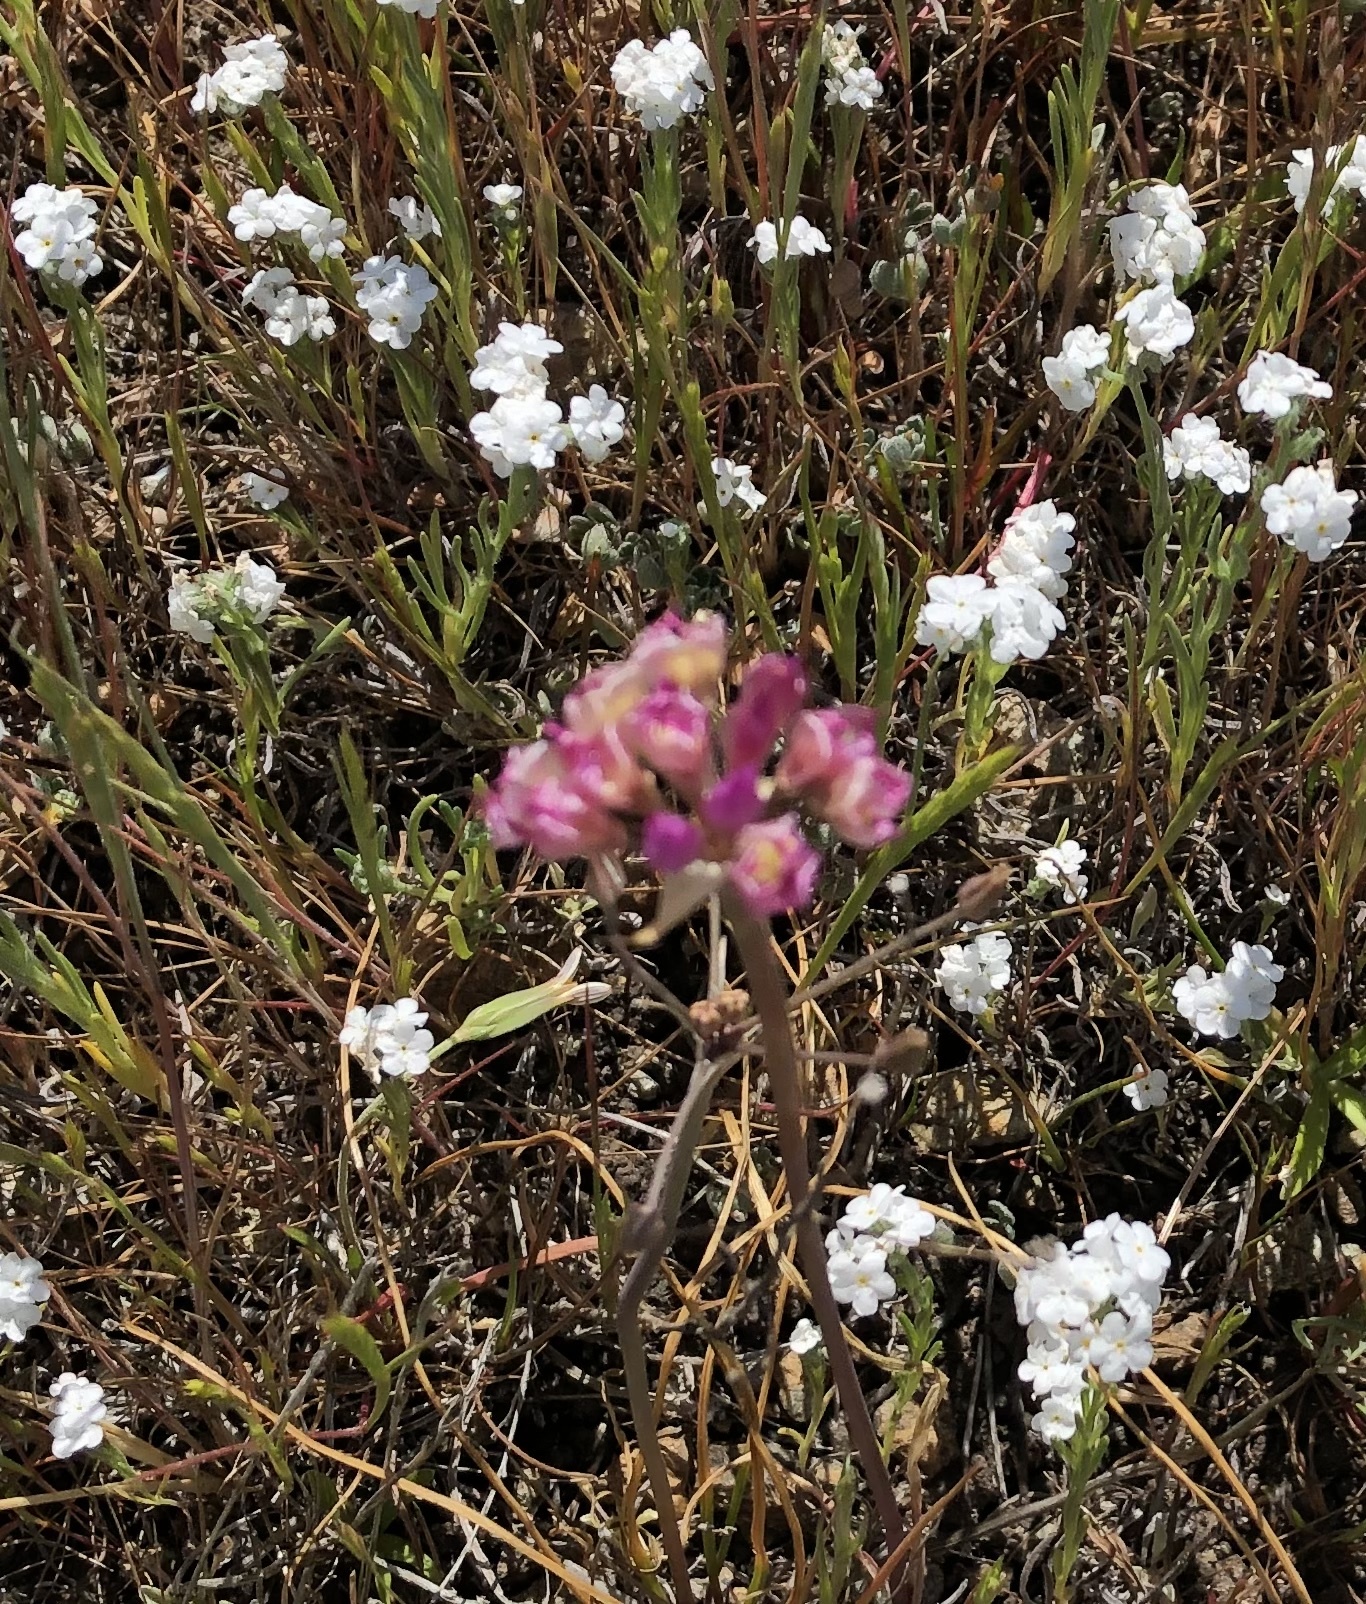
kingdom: Plantae
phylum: Tracheophyta
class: Liliopsida
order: Asparagales
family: Amaryllidaceae
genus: Allium
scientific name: Allium serra
